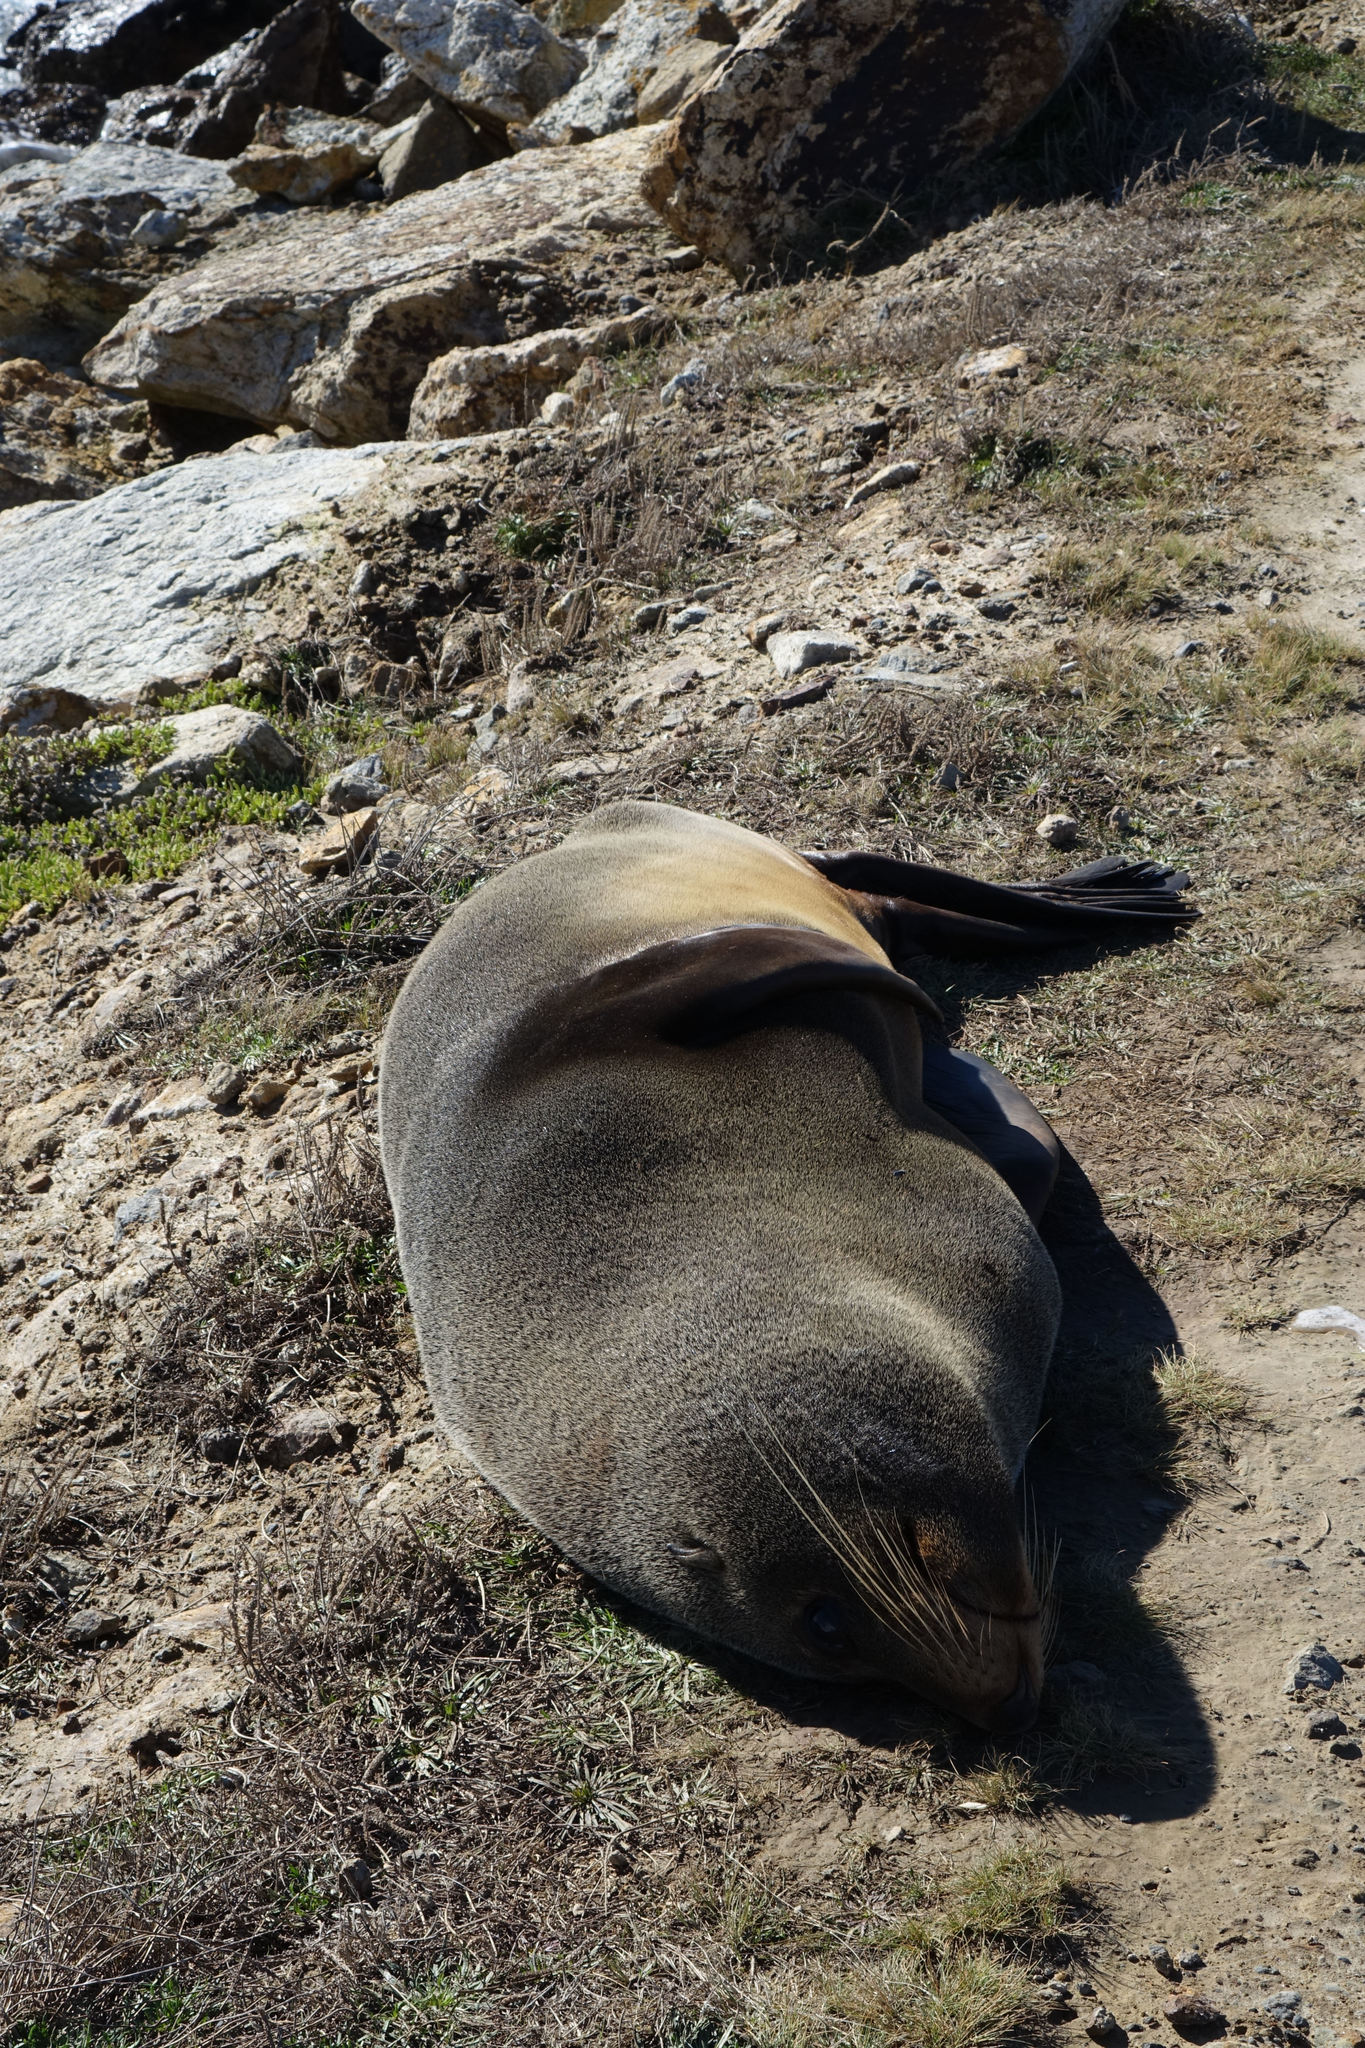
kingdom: Animalia
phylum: Chordata
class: Mammalia
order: Carnivora
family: Otariidae
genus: Arctocephalus
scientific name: Arctocephalus forsteri
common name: New zealand fur seal
